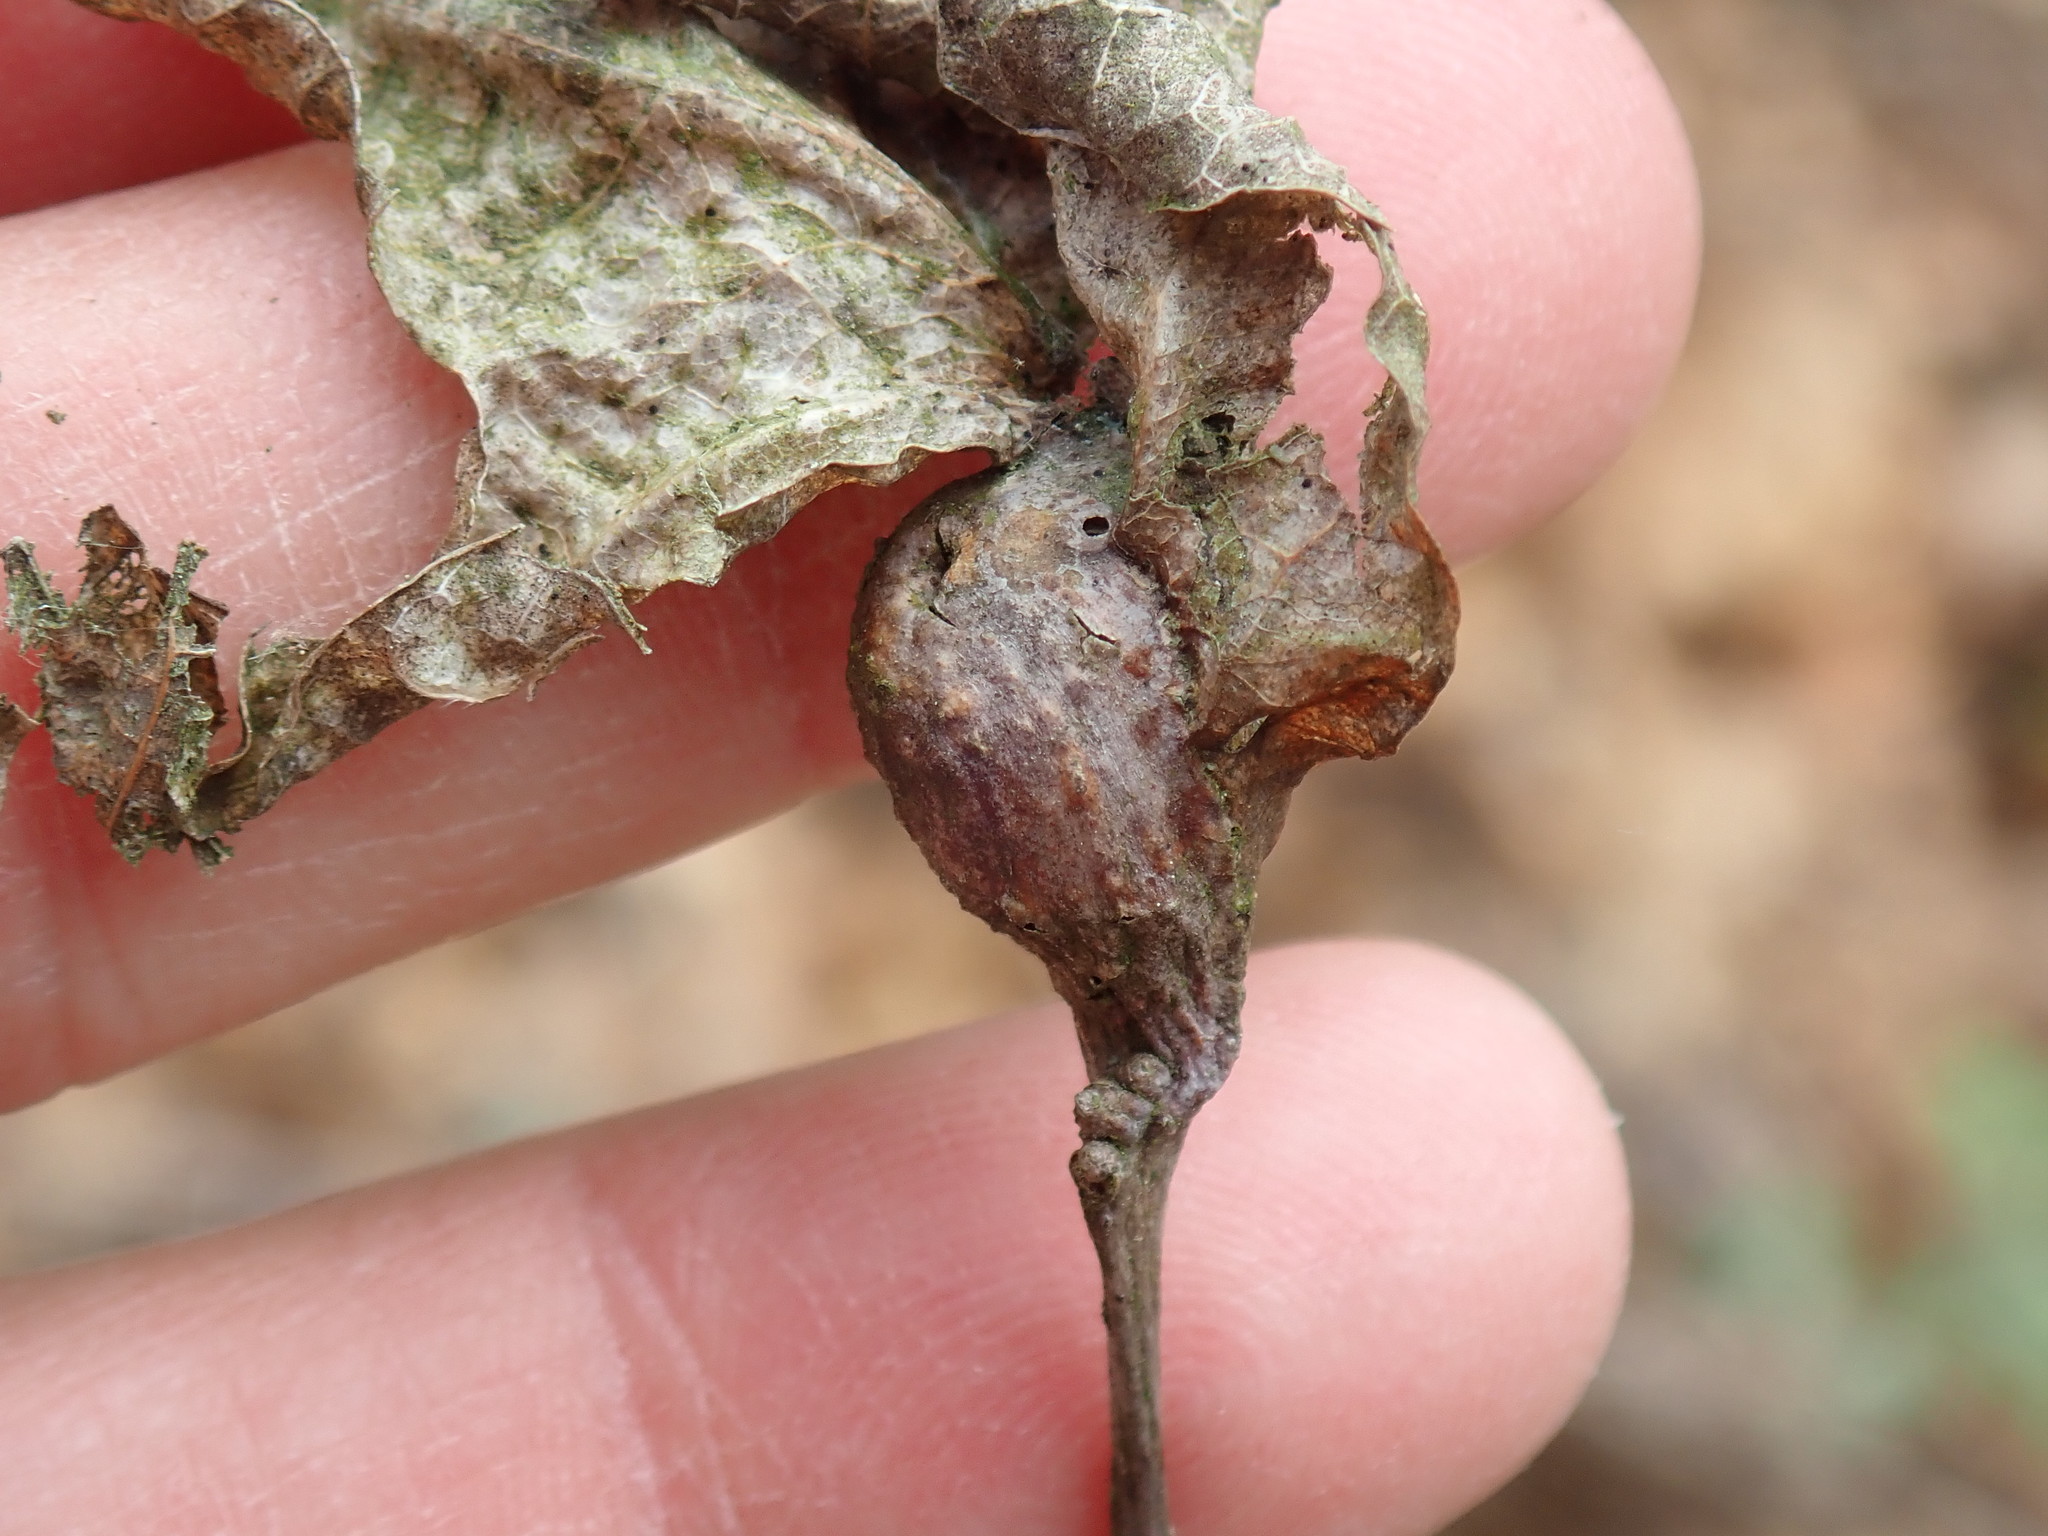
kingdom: Animalia
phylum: Arthropoda
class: Insecta
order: Hymenoptera
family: Cynipidae
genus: Andricus
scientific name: Andricus
